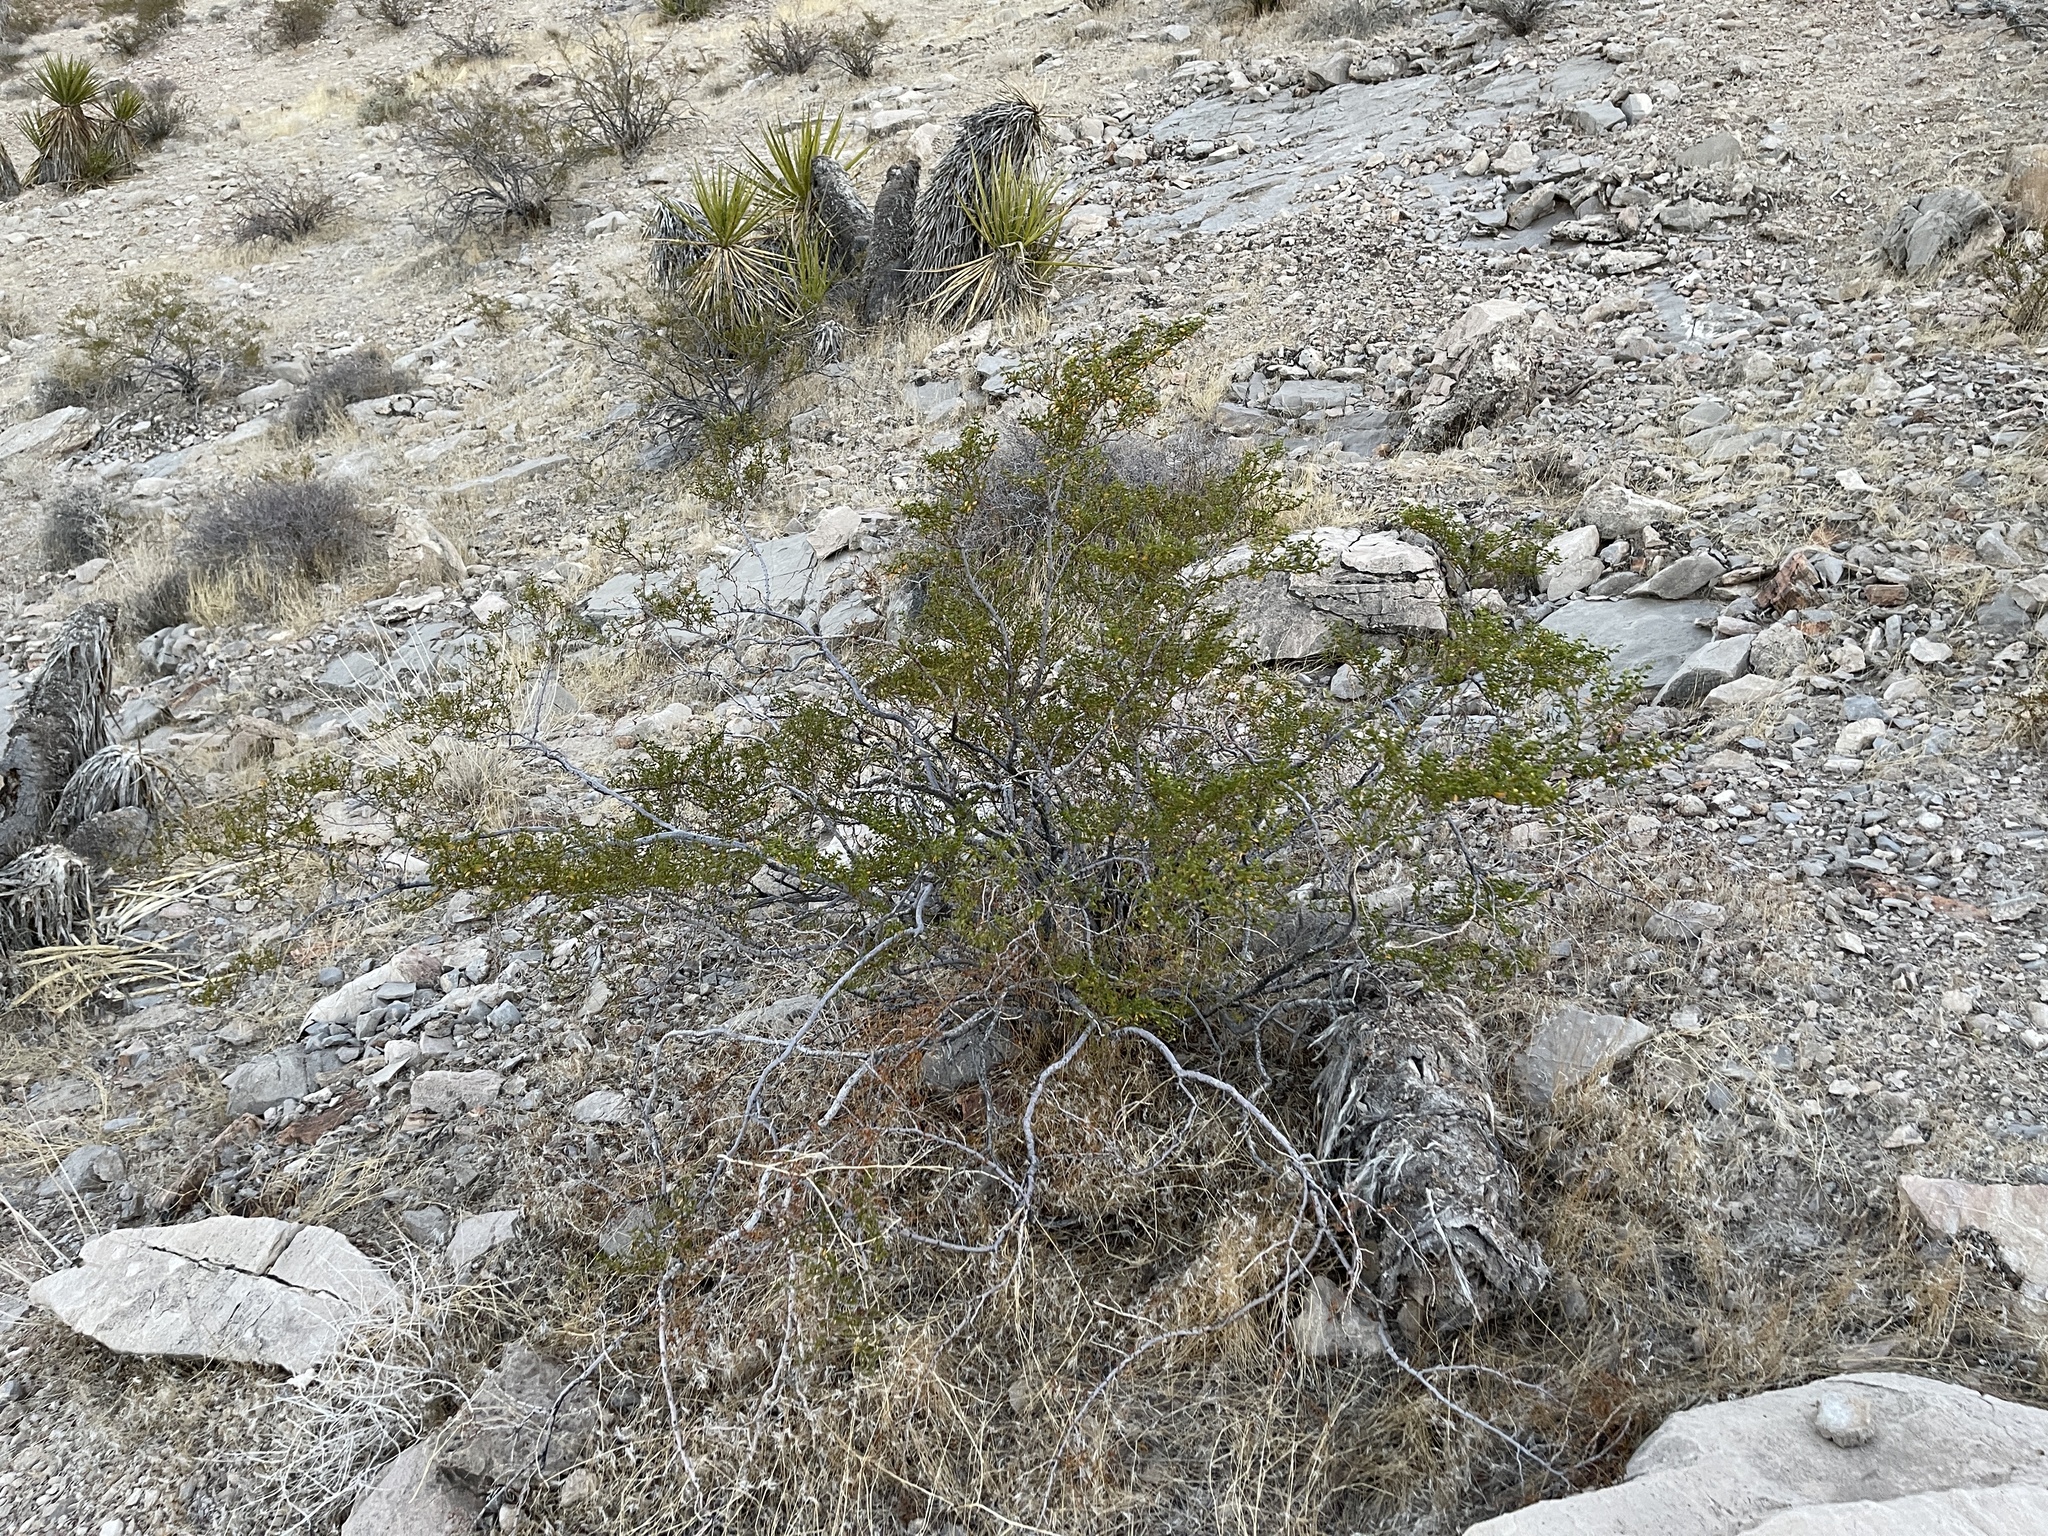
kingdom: Plantae
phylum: Tracheophyta
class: Magnoliopsida
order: Zygophyllales
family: Zygophyllaceae
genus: Larrea
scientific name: Larrea tridentata
